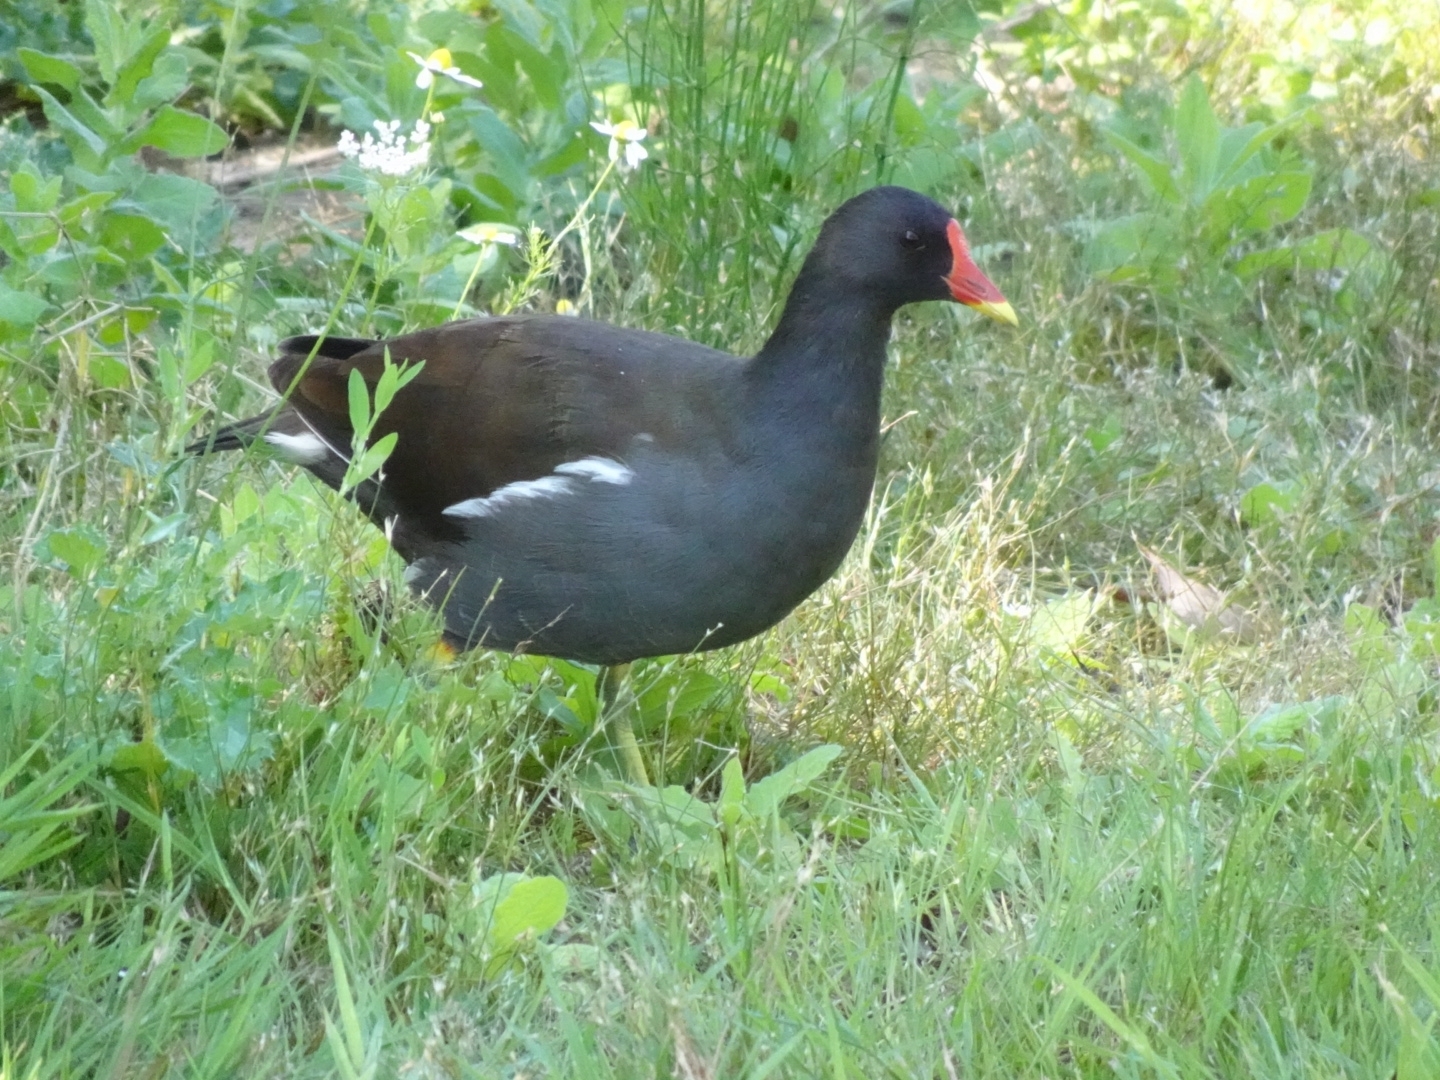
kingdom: Animalia
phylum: Chordata
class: Aves
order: Gruiformes
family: Rallidae
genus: Gallinula
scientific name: Gallinula chloropus
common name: Common moorhen
